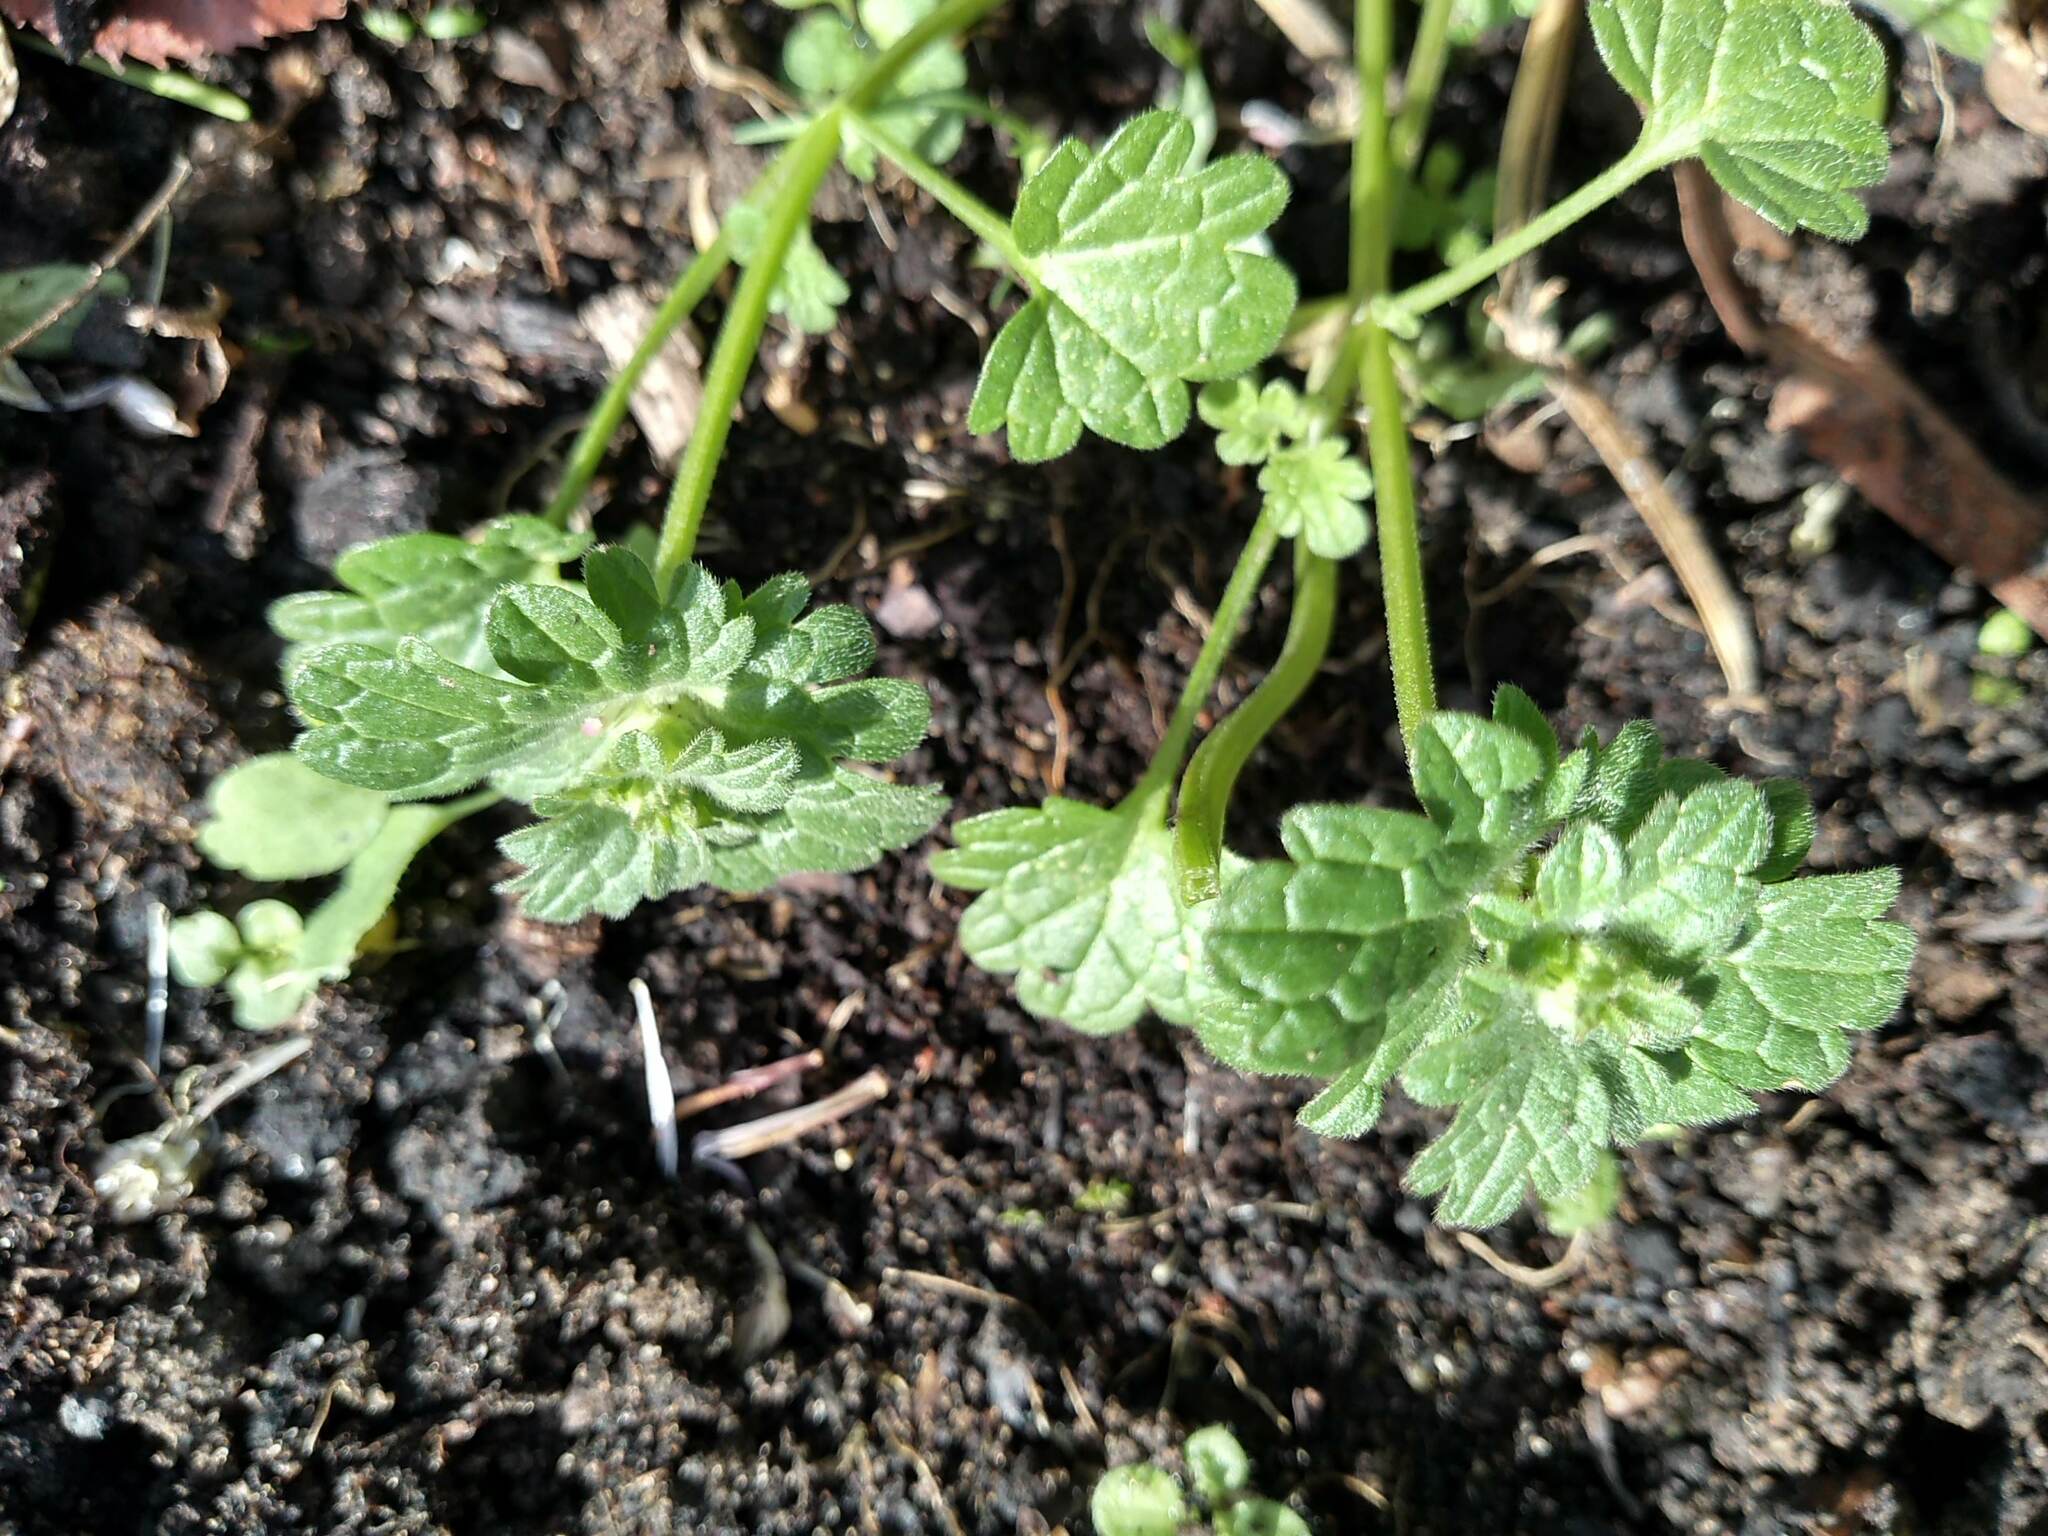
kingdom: Plantae
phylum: Tracheophyta
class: Magnoliopsida
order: Lamiales
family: Lamiaceae
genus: Lamium
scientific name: Lamium amplexicaule
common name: Henbit dead-nettle
